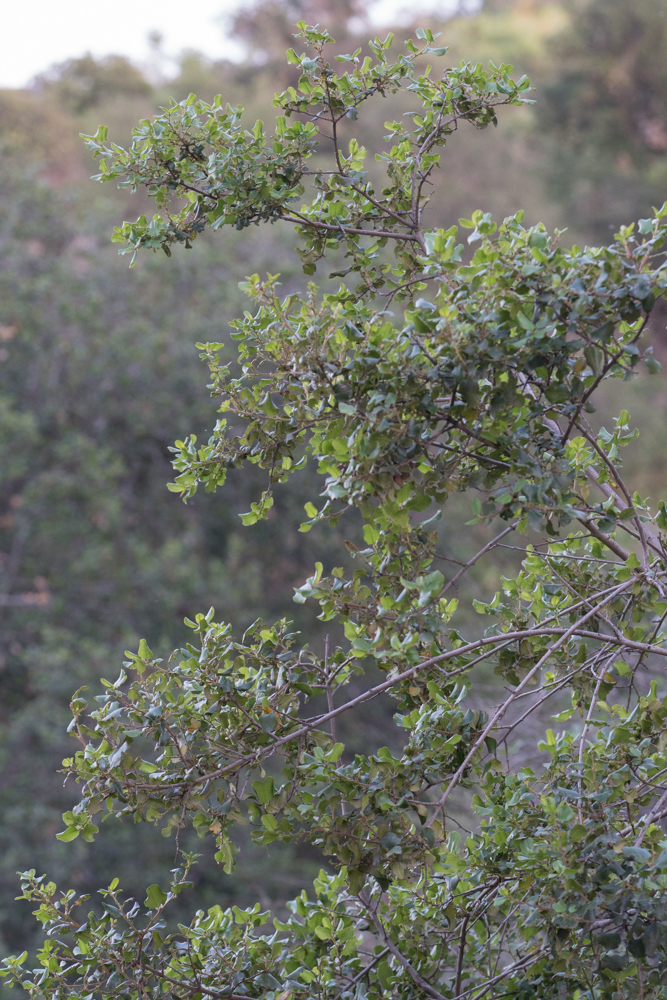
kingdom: Plantae
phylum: Tracheophyta
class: Magnoliopsida
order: Rosales
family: Rhamnaceae
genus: Endotropis
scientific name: Endotropis crocea
